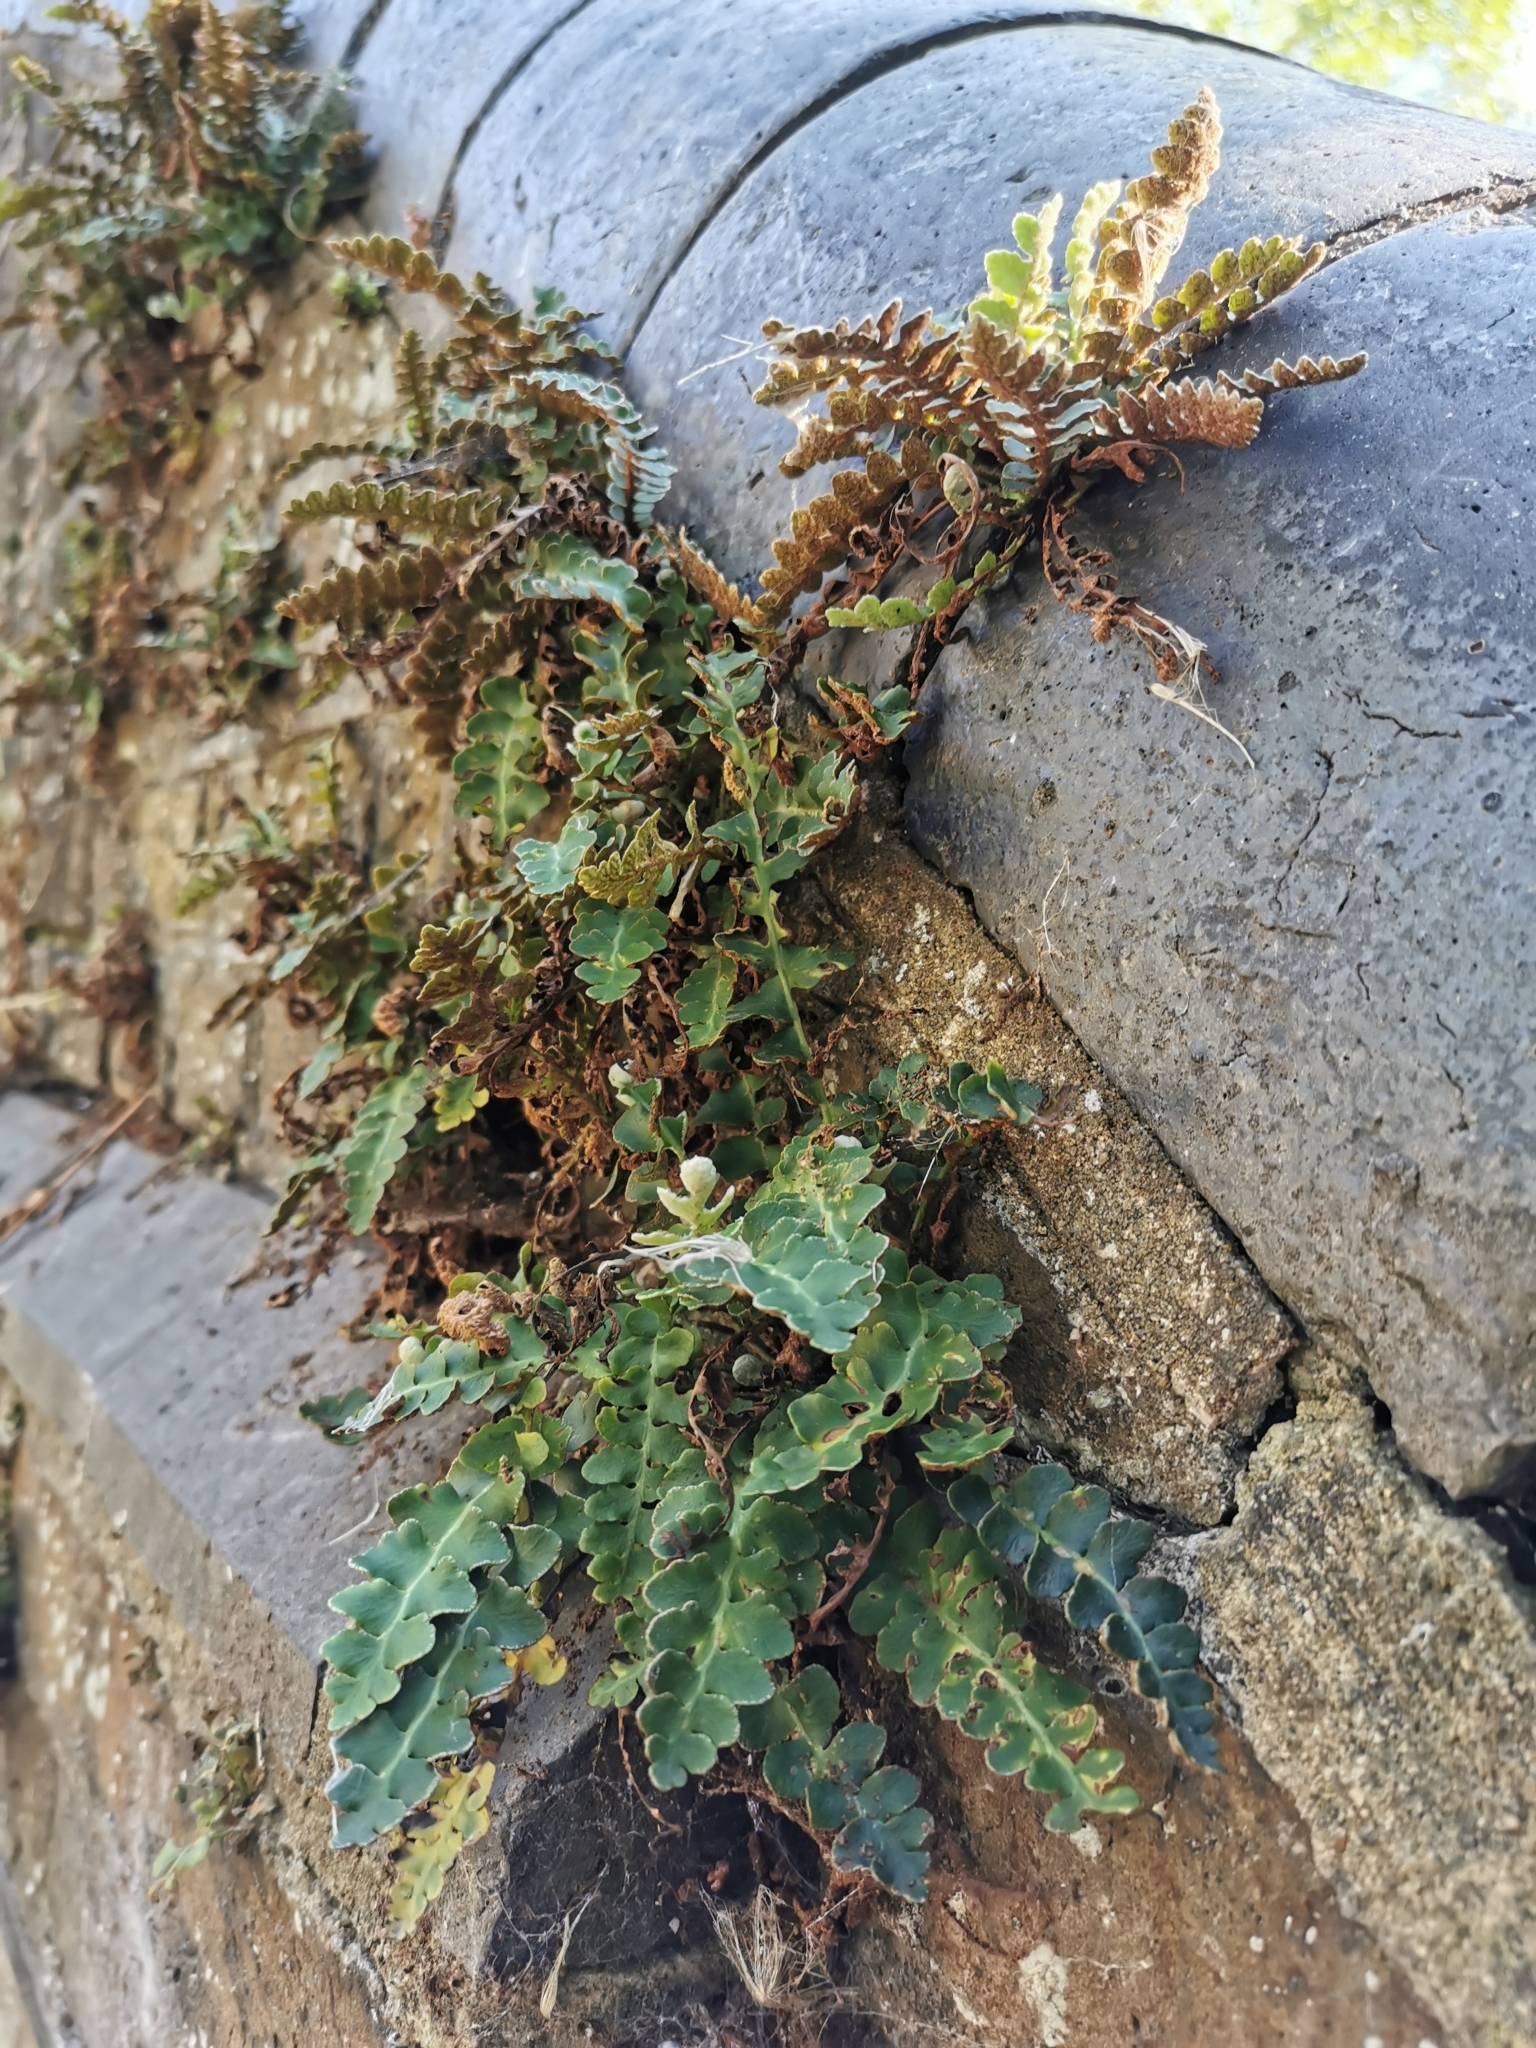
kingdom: Plantae
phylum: Tracheophyta
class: Polypodiopsida
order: Polypodiales
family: Aspleniaceae
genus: Asplenium
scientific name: Asplenium ceterach
